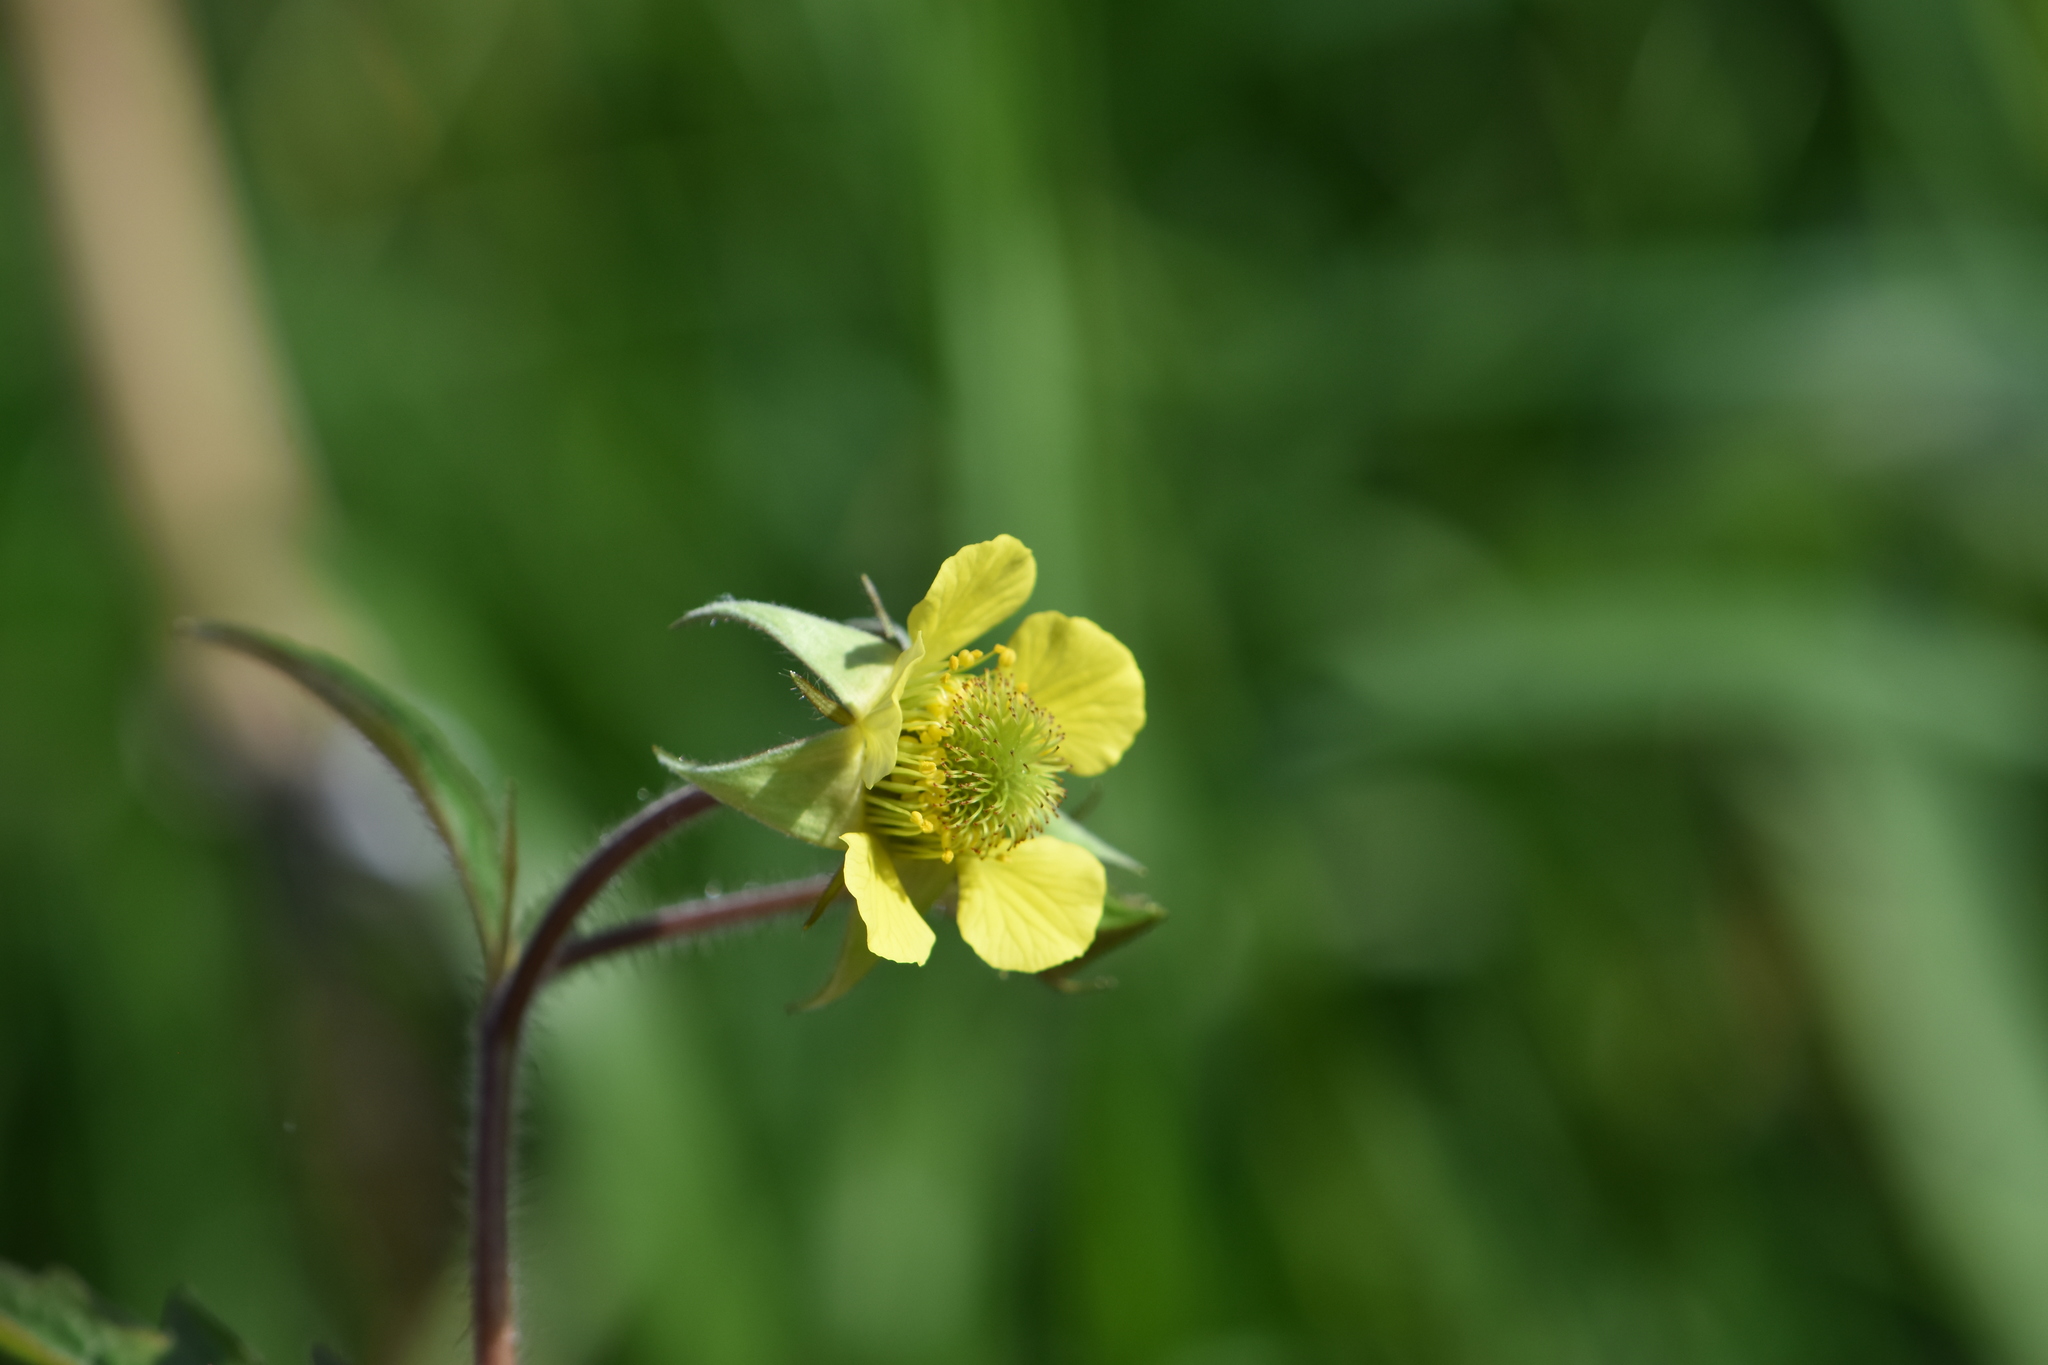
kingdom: Plantae
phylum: Tracheophyta
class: Magnoliopsida
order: Rosales
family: Rosaceae
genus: Geum
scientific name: Geum intermedium
